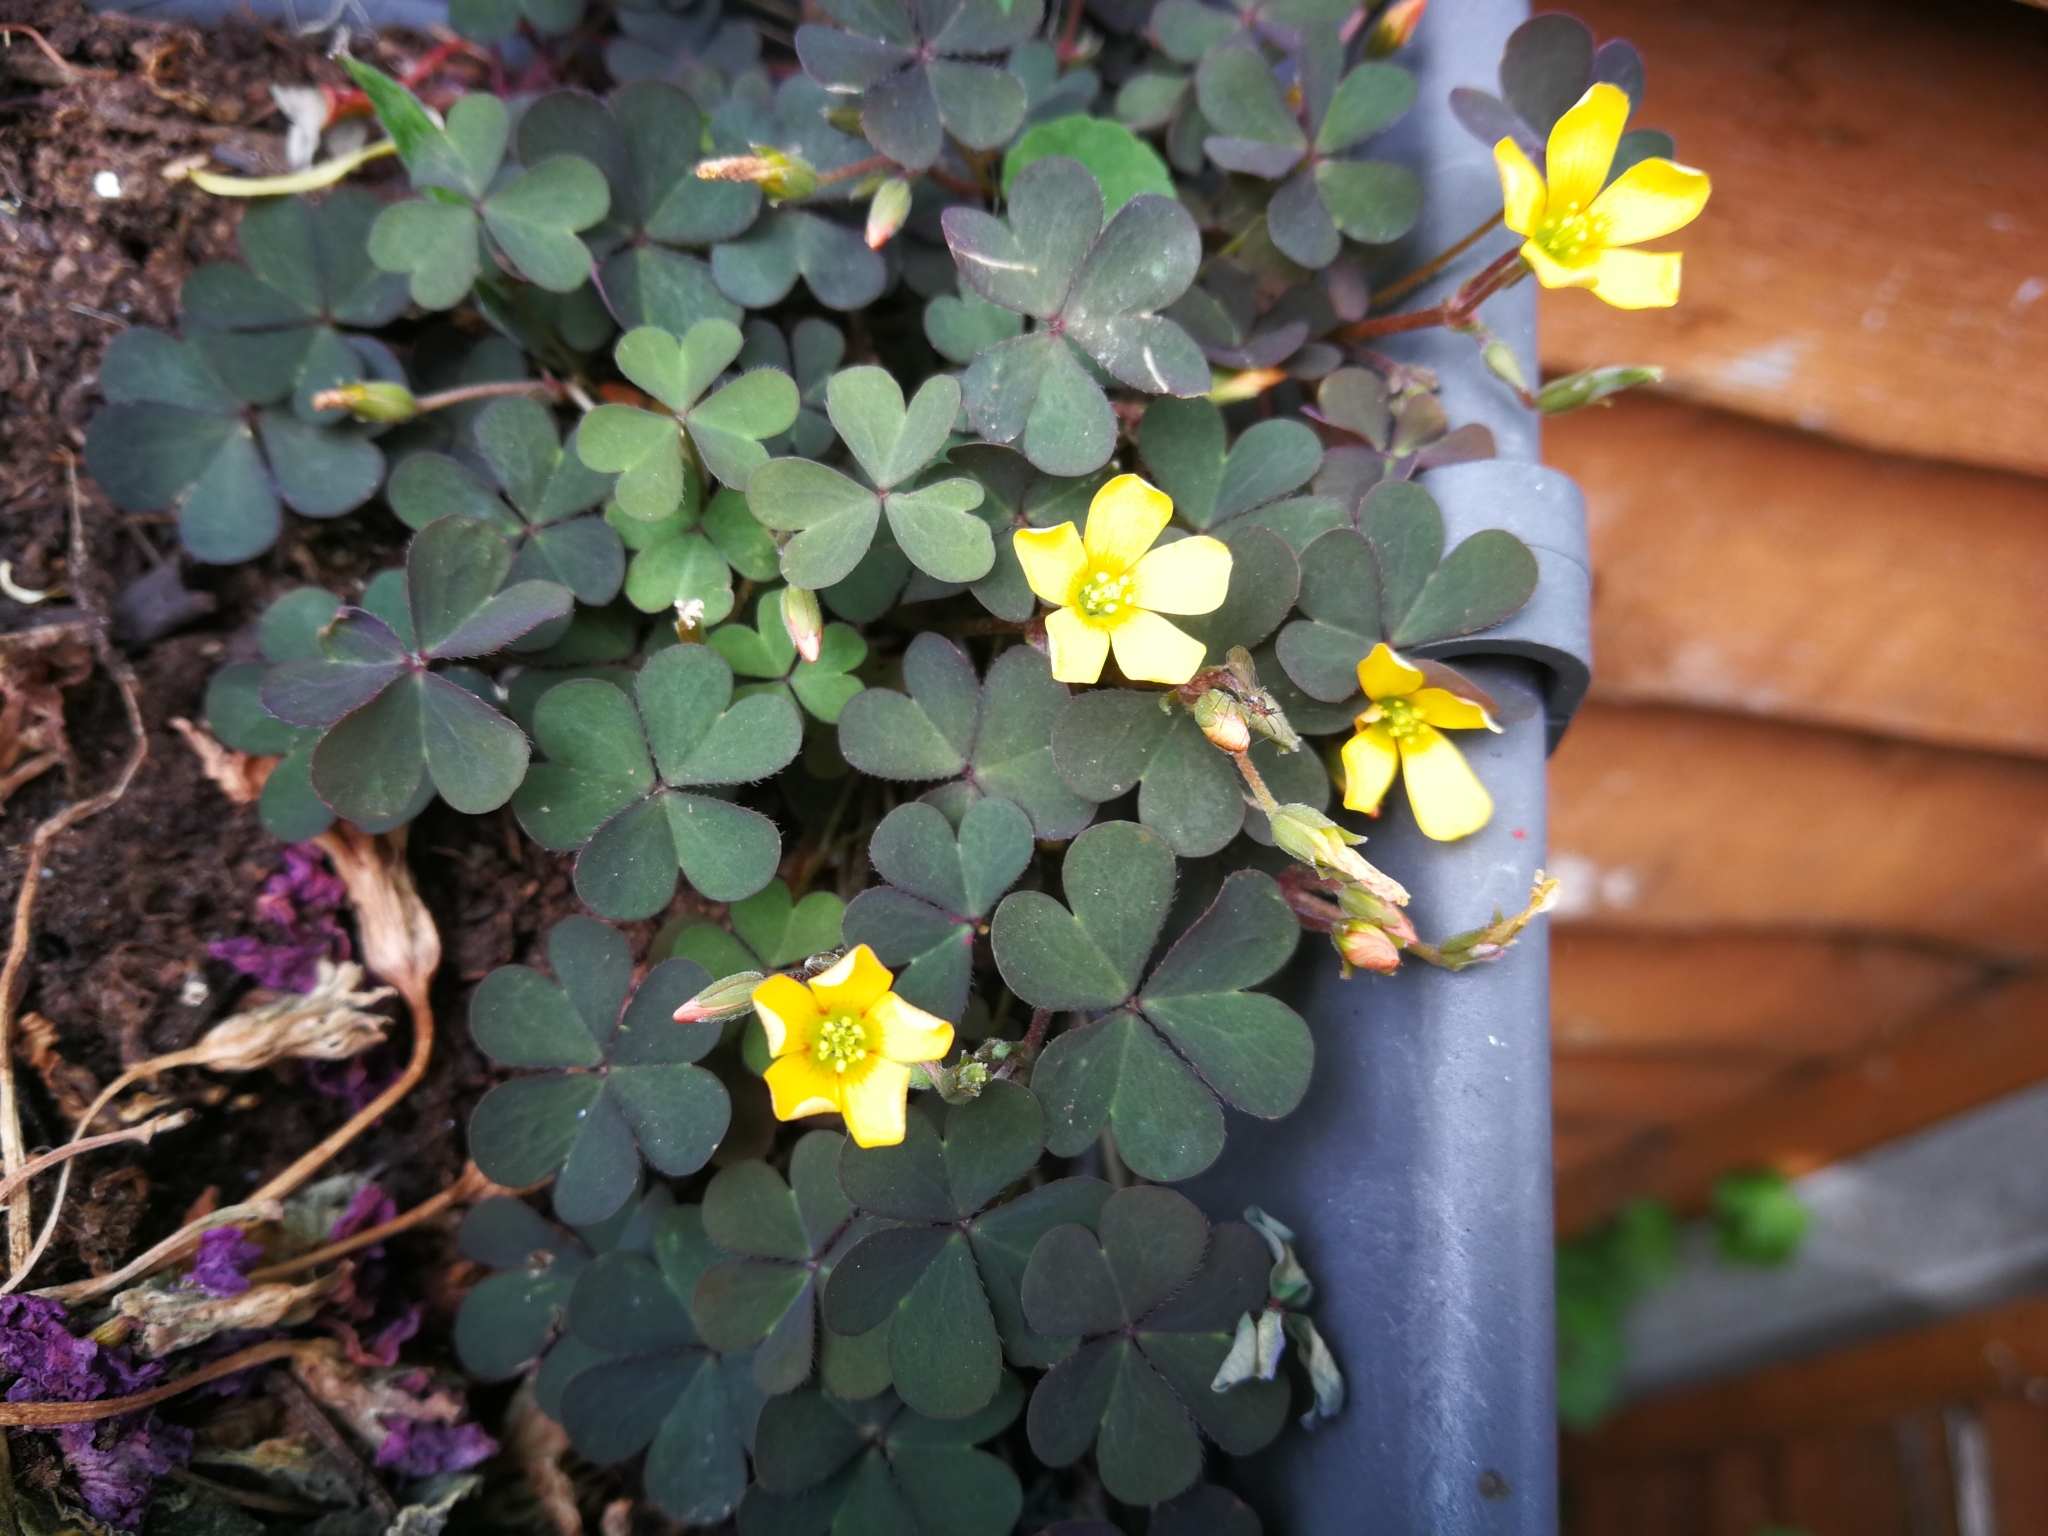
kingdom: Plantae
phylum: Tracheophyta
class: Magnoliopsida
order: Oxalidales
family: Oxalidaceae
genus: Oxalis
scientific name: Oxalis corniculata
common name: Procumbent yellow-sorrel
